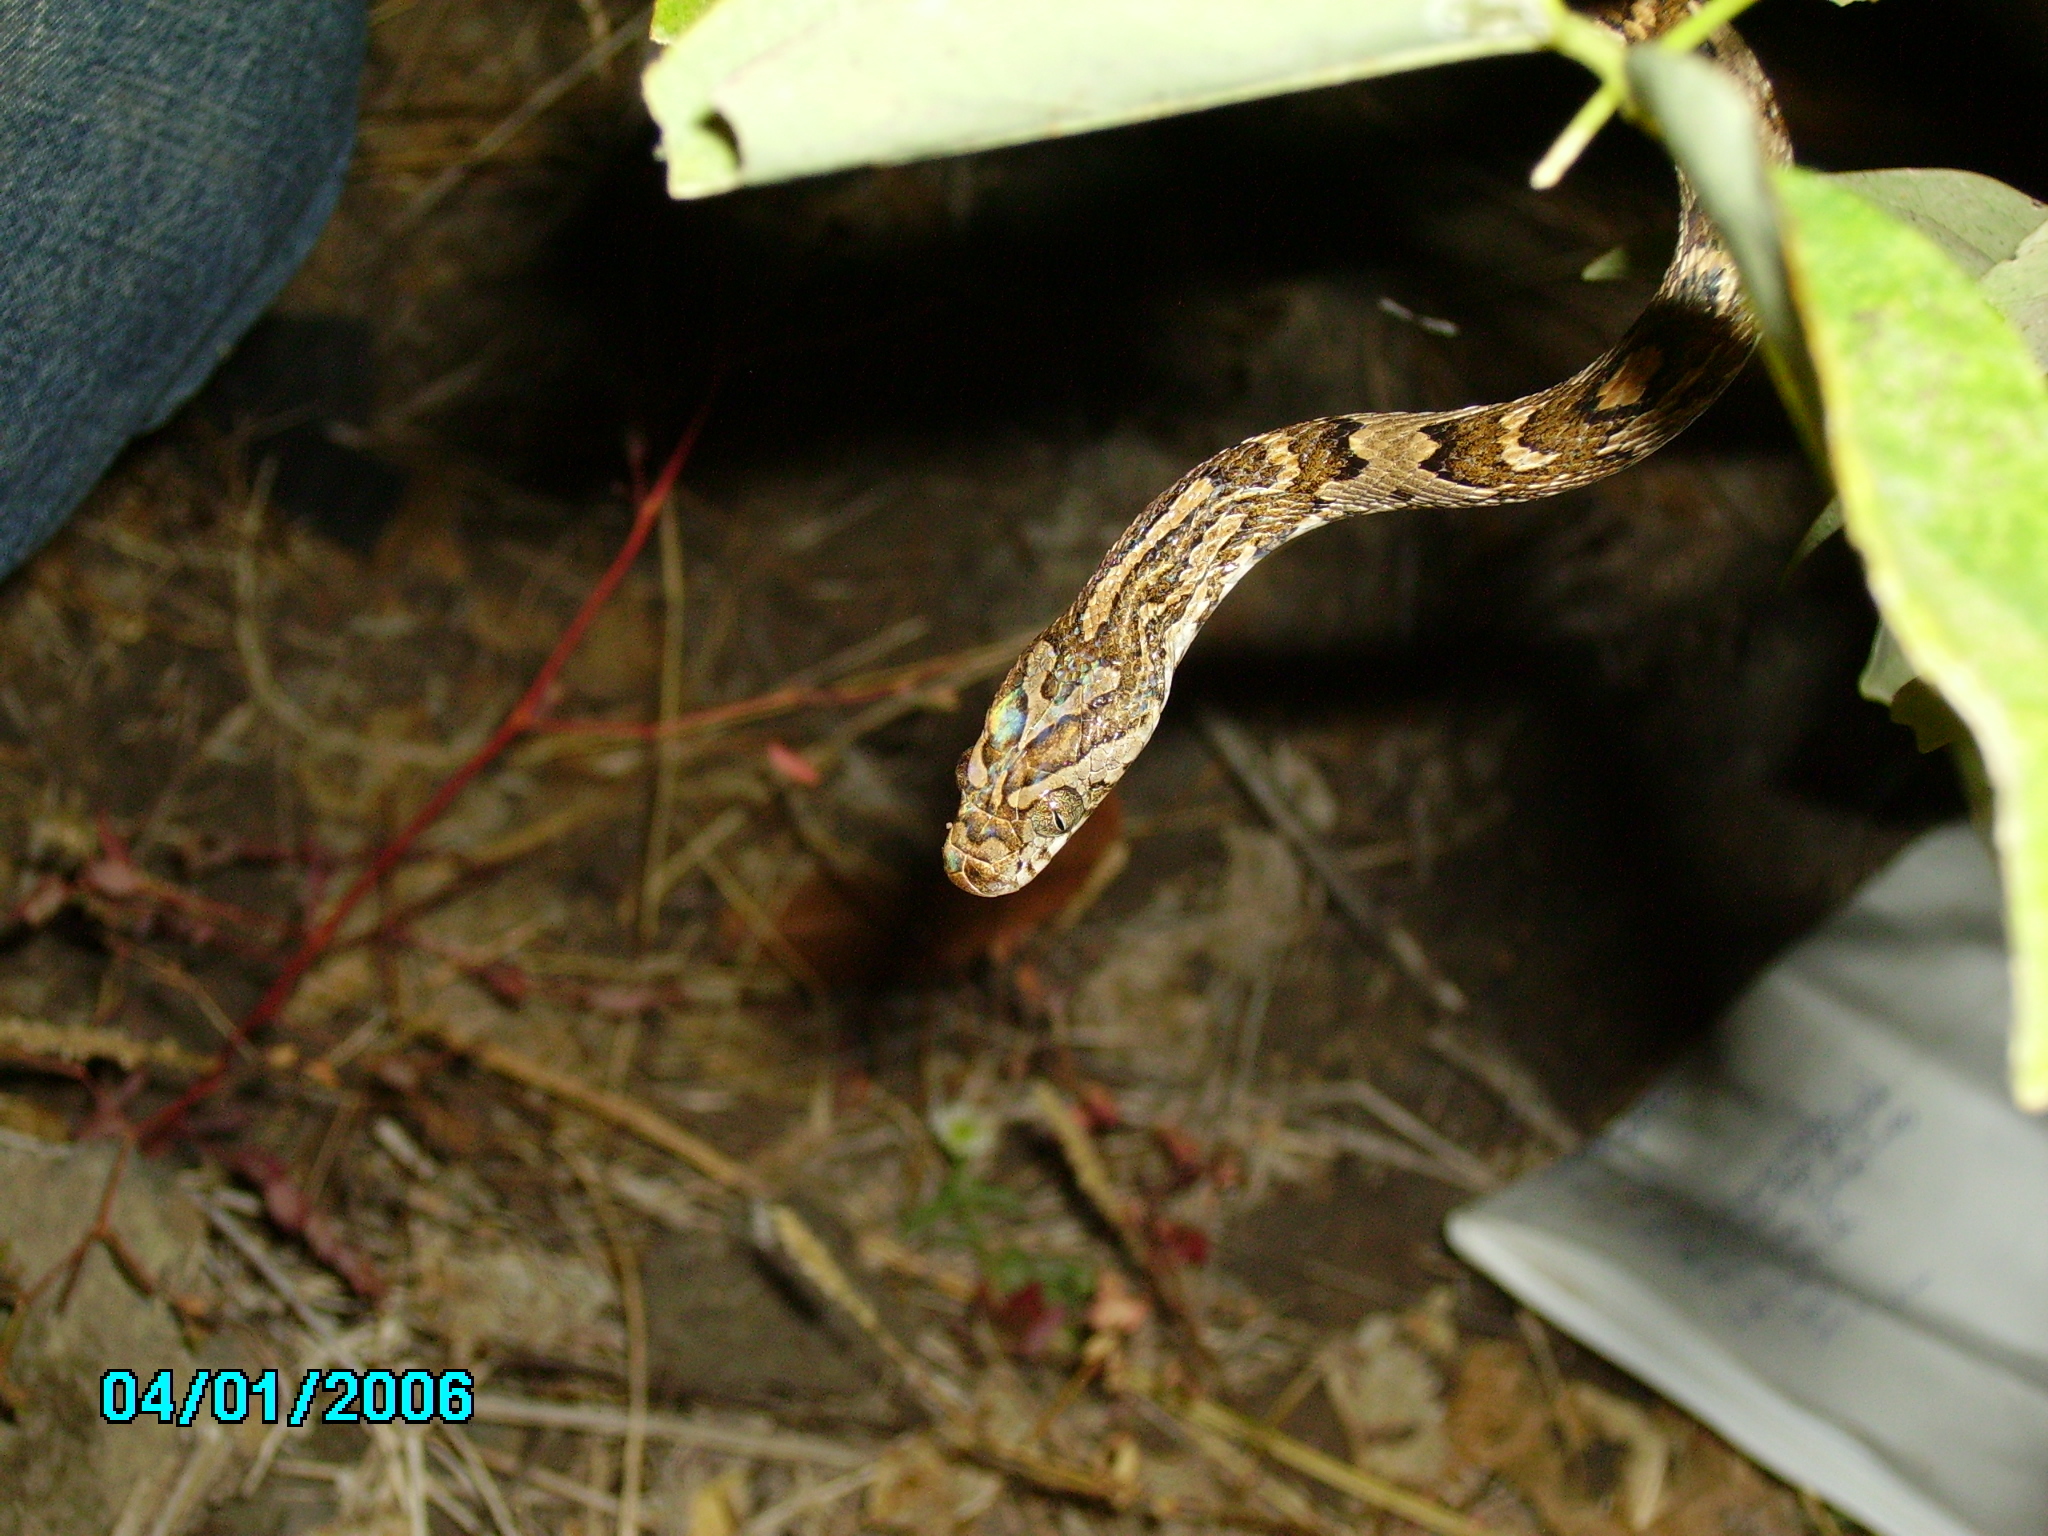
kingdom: Animalia
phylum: Chordata
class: Squamata
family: Colubridae
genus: Trimorphodon
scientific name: Trimorphodon quadruplex
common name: Central american lyre snake
